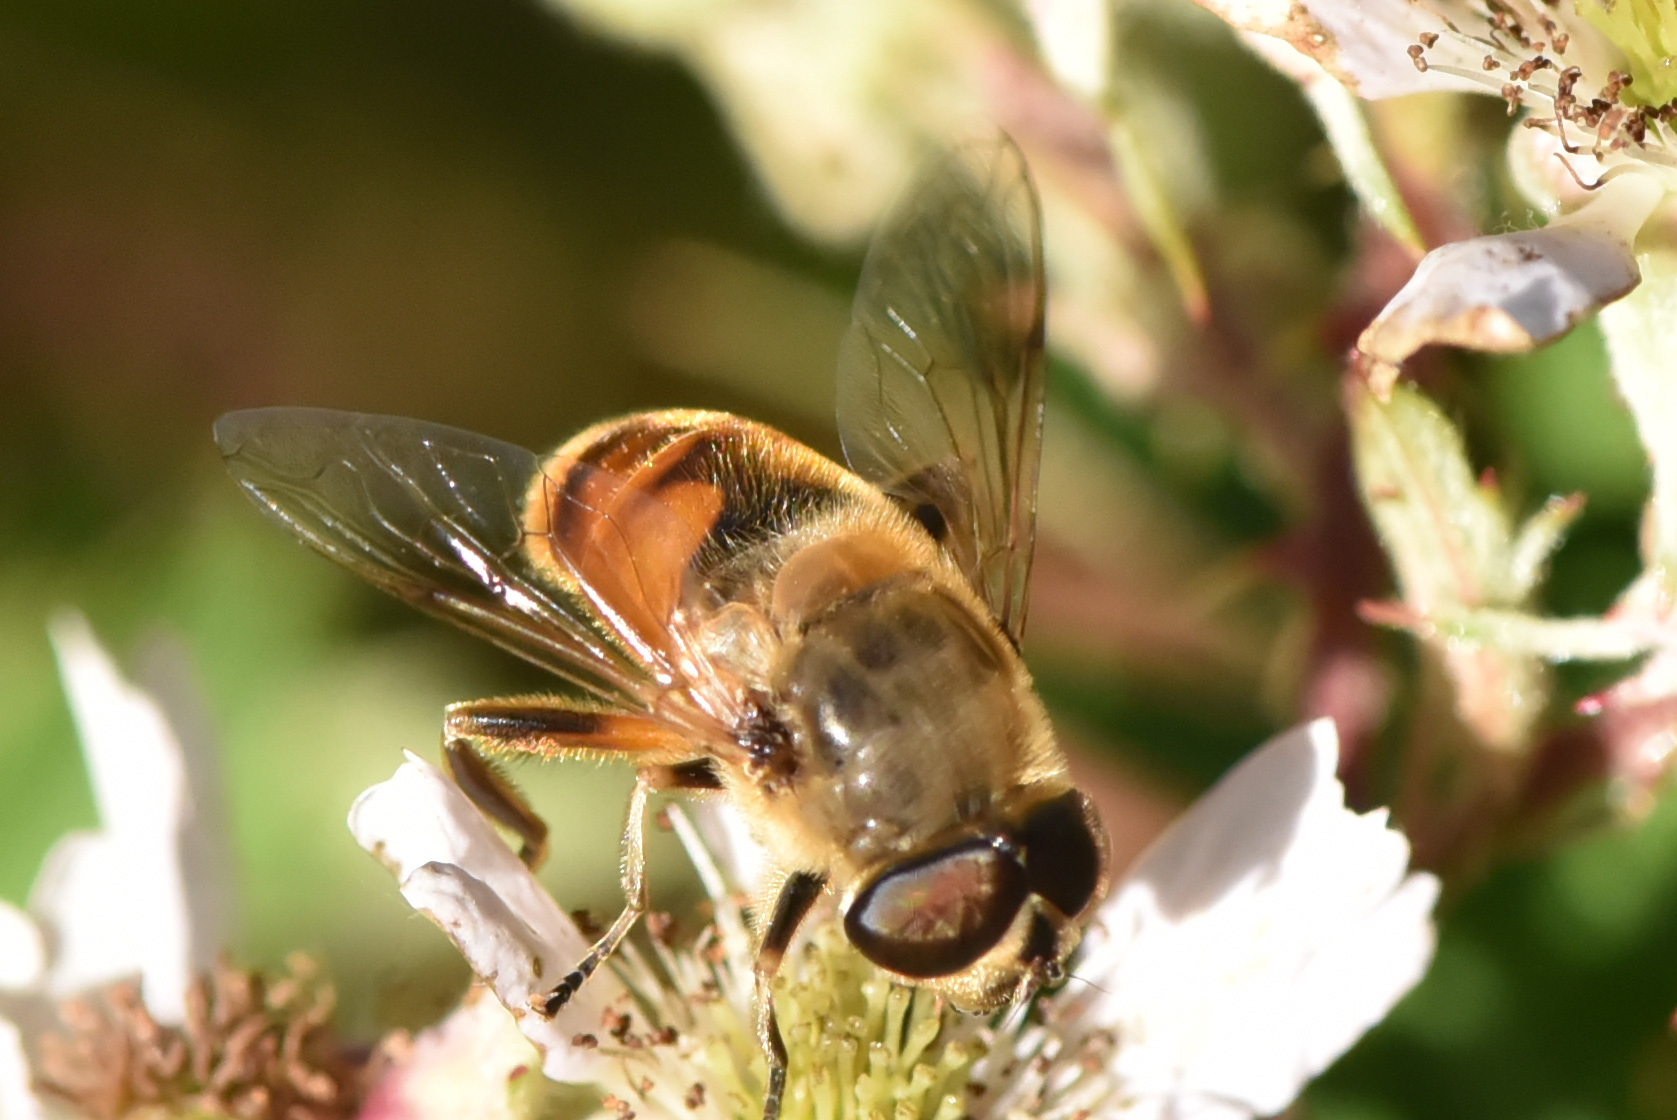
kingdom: Animalia
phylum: Arthropoda
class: Insecta
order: Diptera
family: Syrphidae
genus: Eristalis
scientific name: Eristalis tenax
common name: Drone fly
